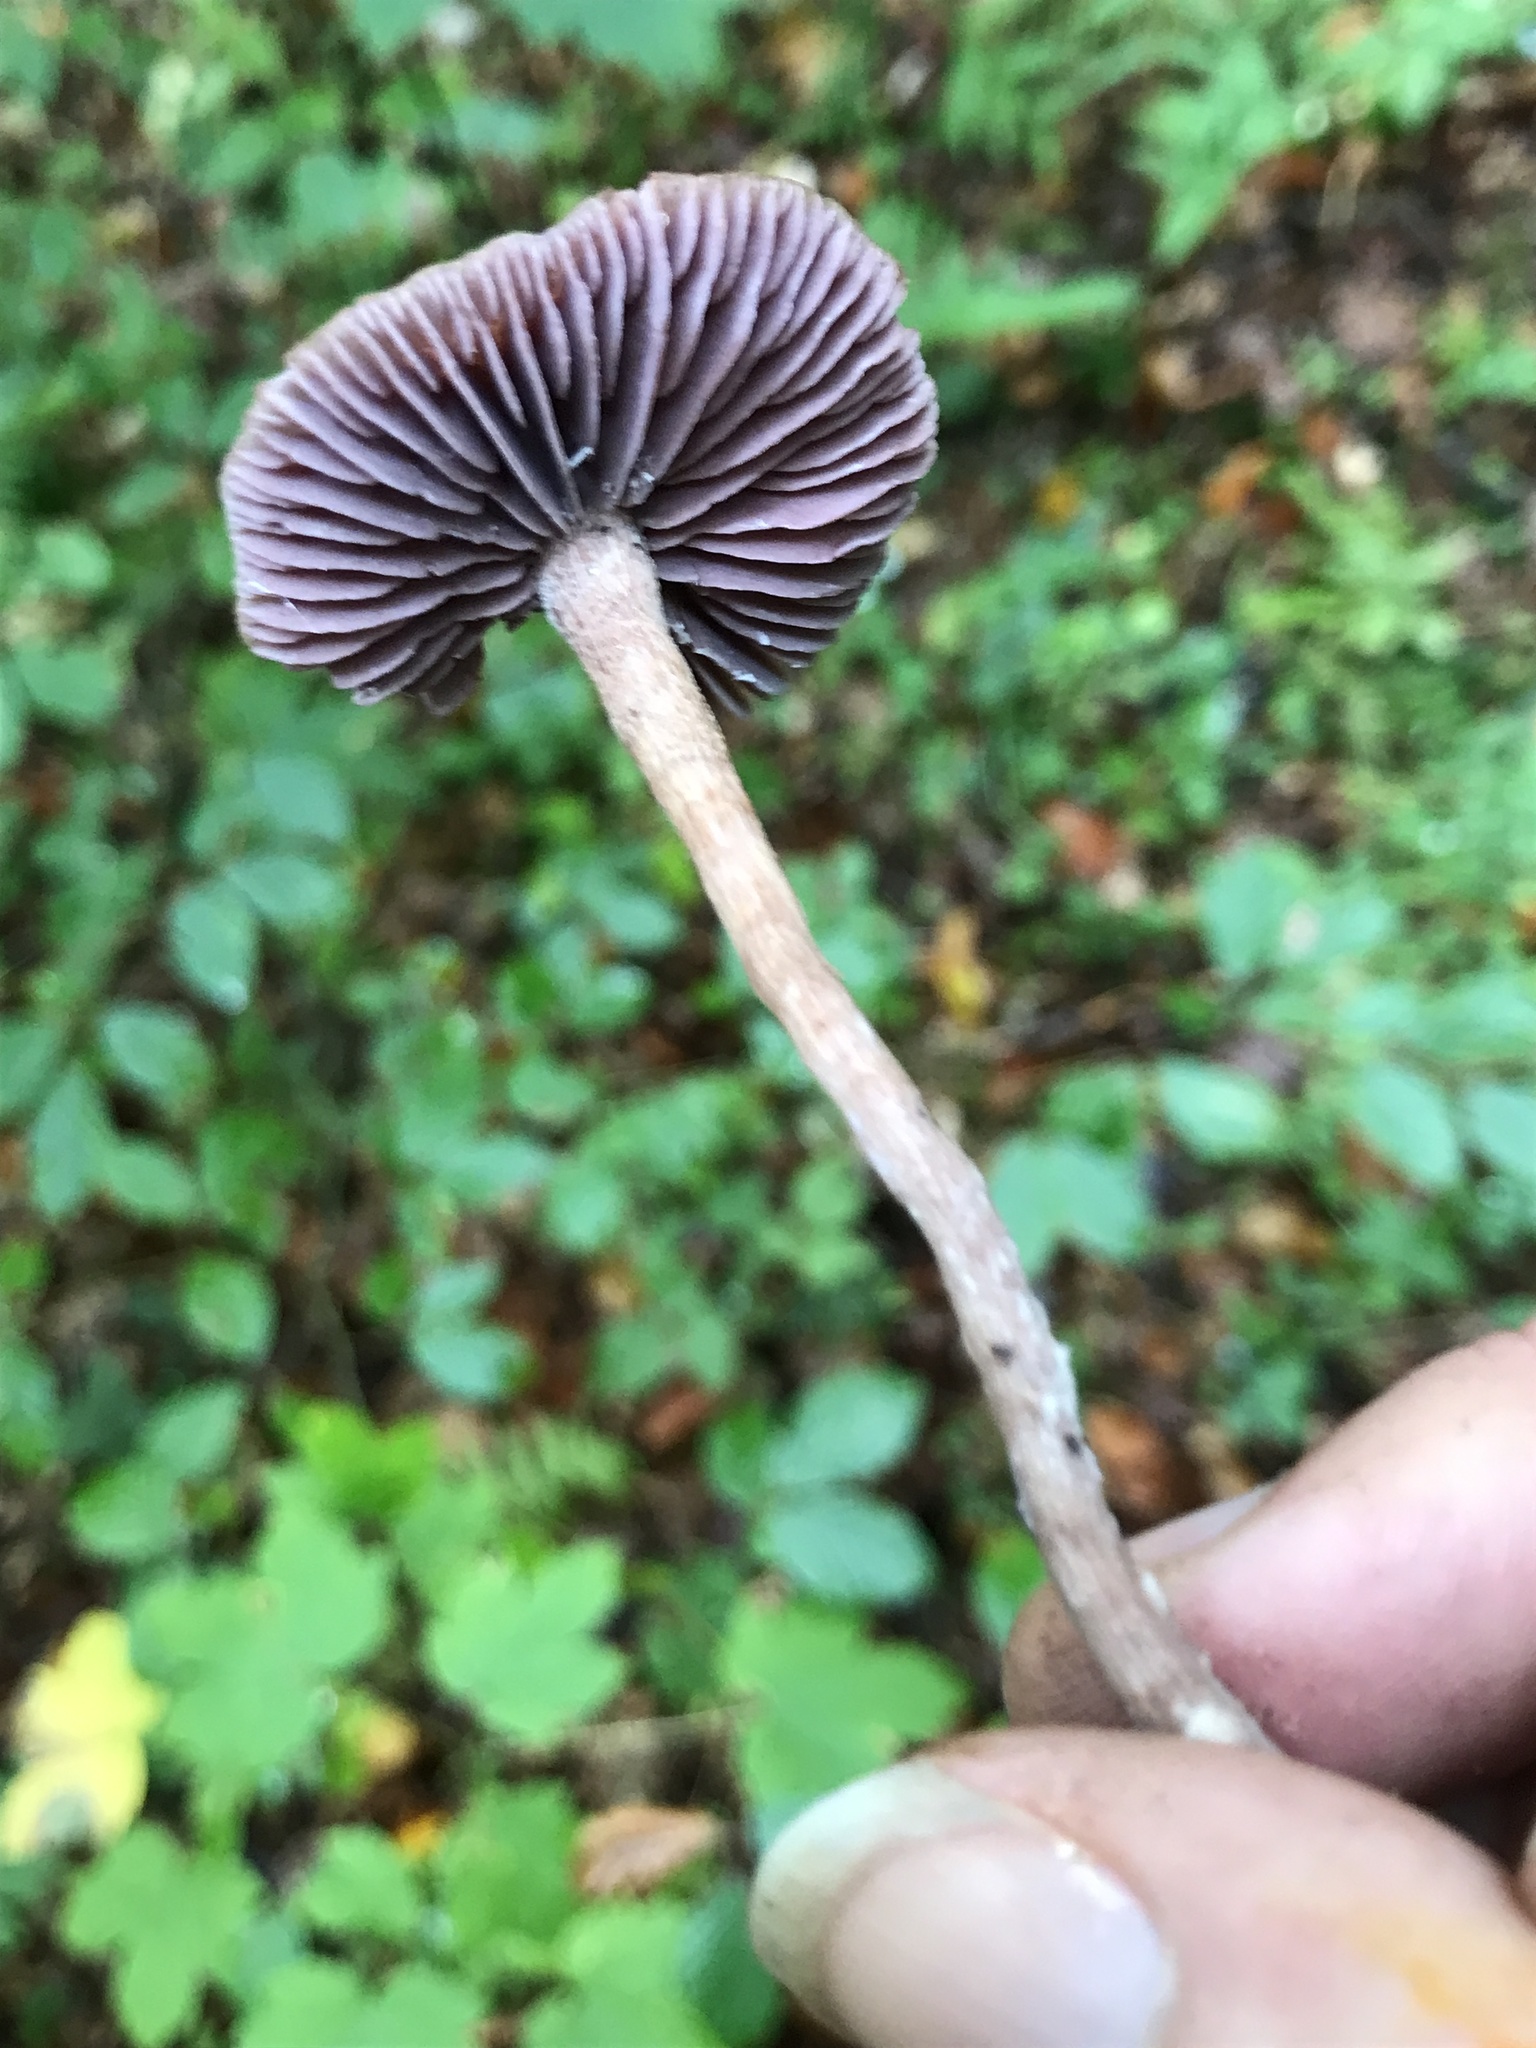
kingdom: Fungi
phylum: Basidiomycota
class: Agaricomycetes
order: Agaricales
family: Hydnangiaceae
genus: Laccaria
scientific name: Laccaria amethystina
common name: Amethyst deceiver
